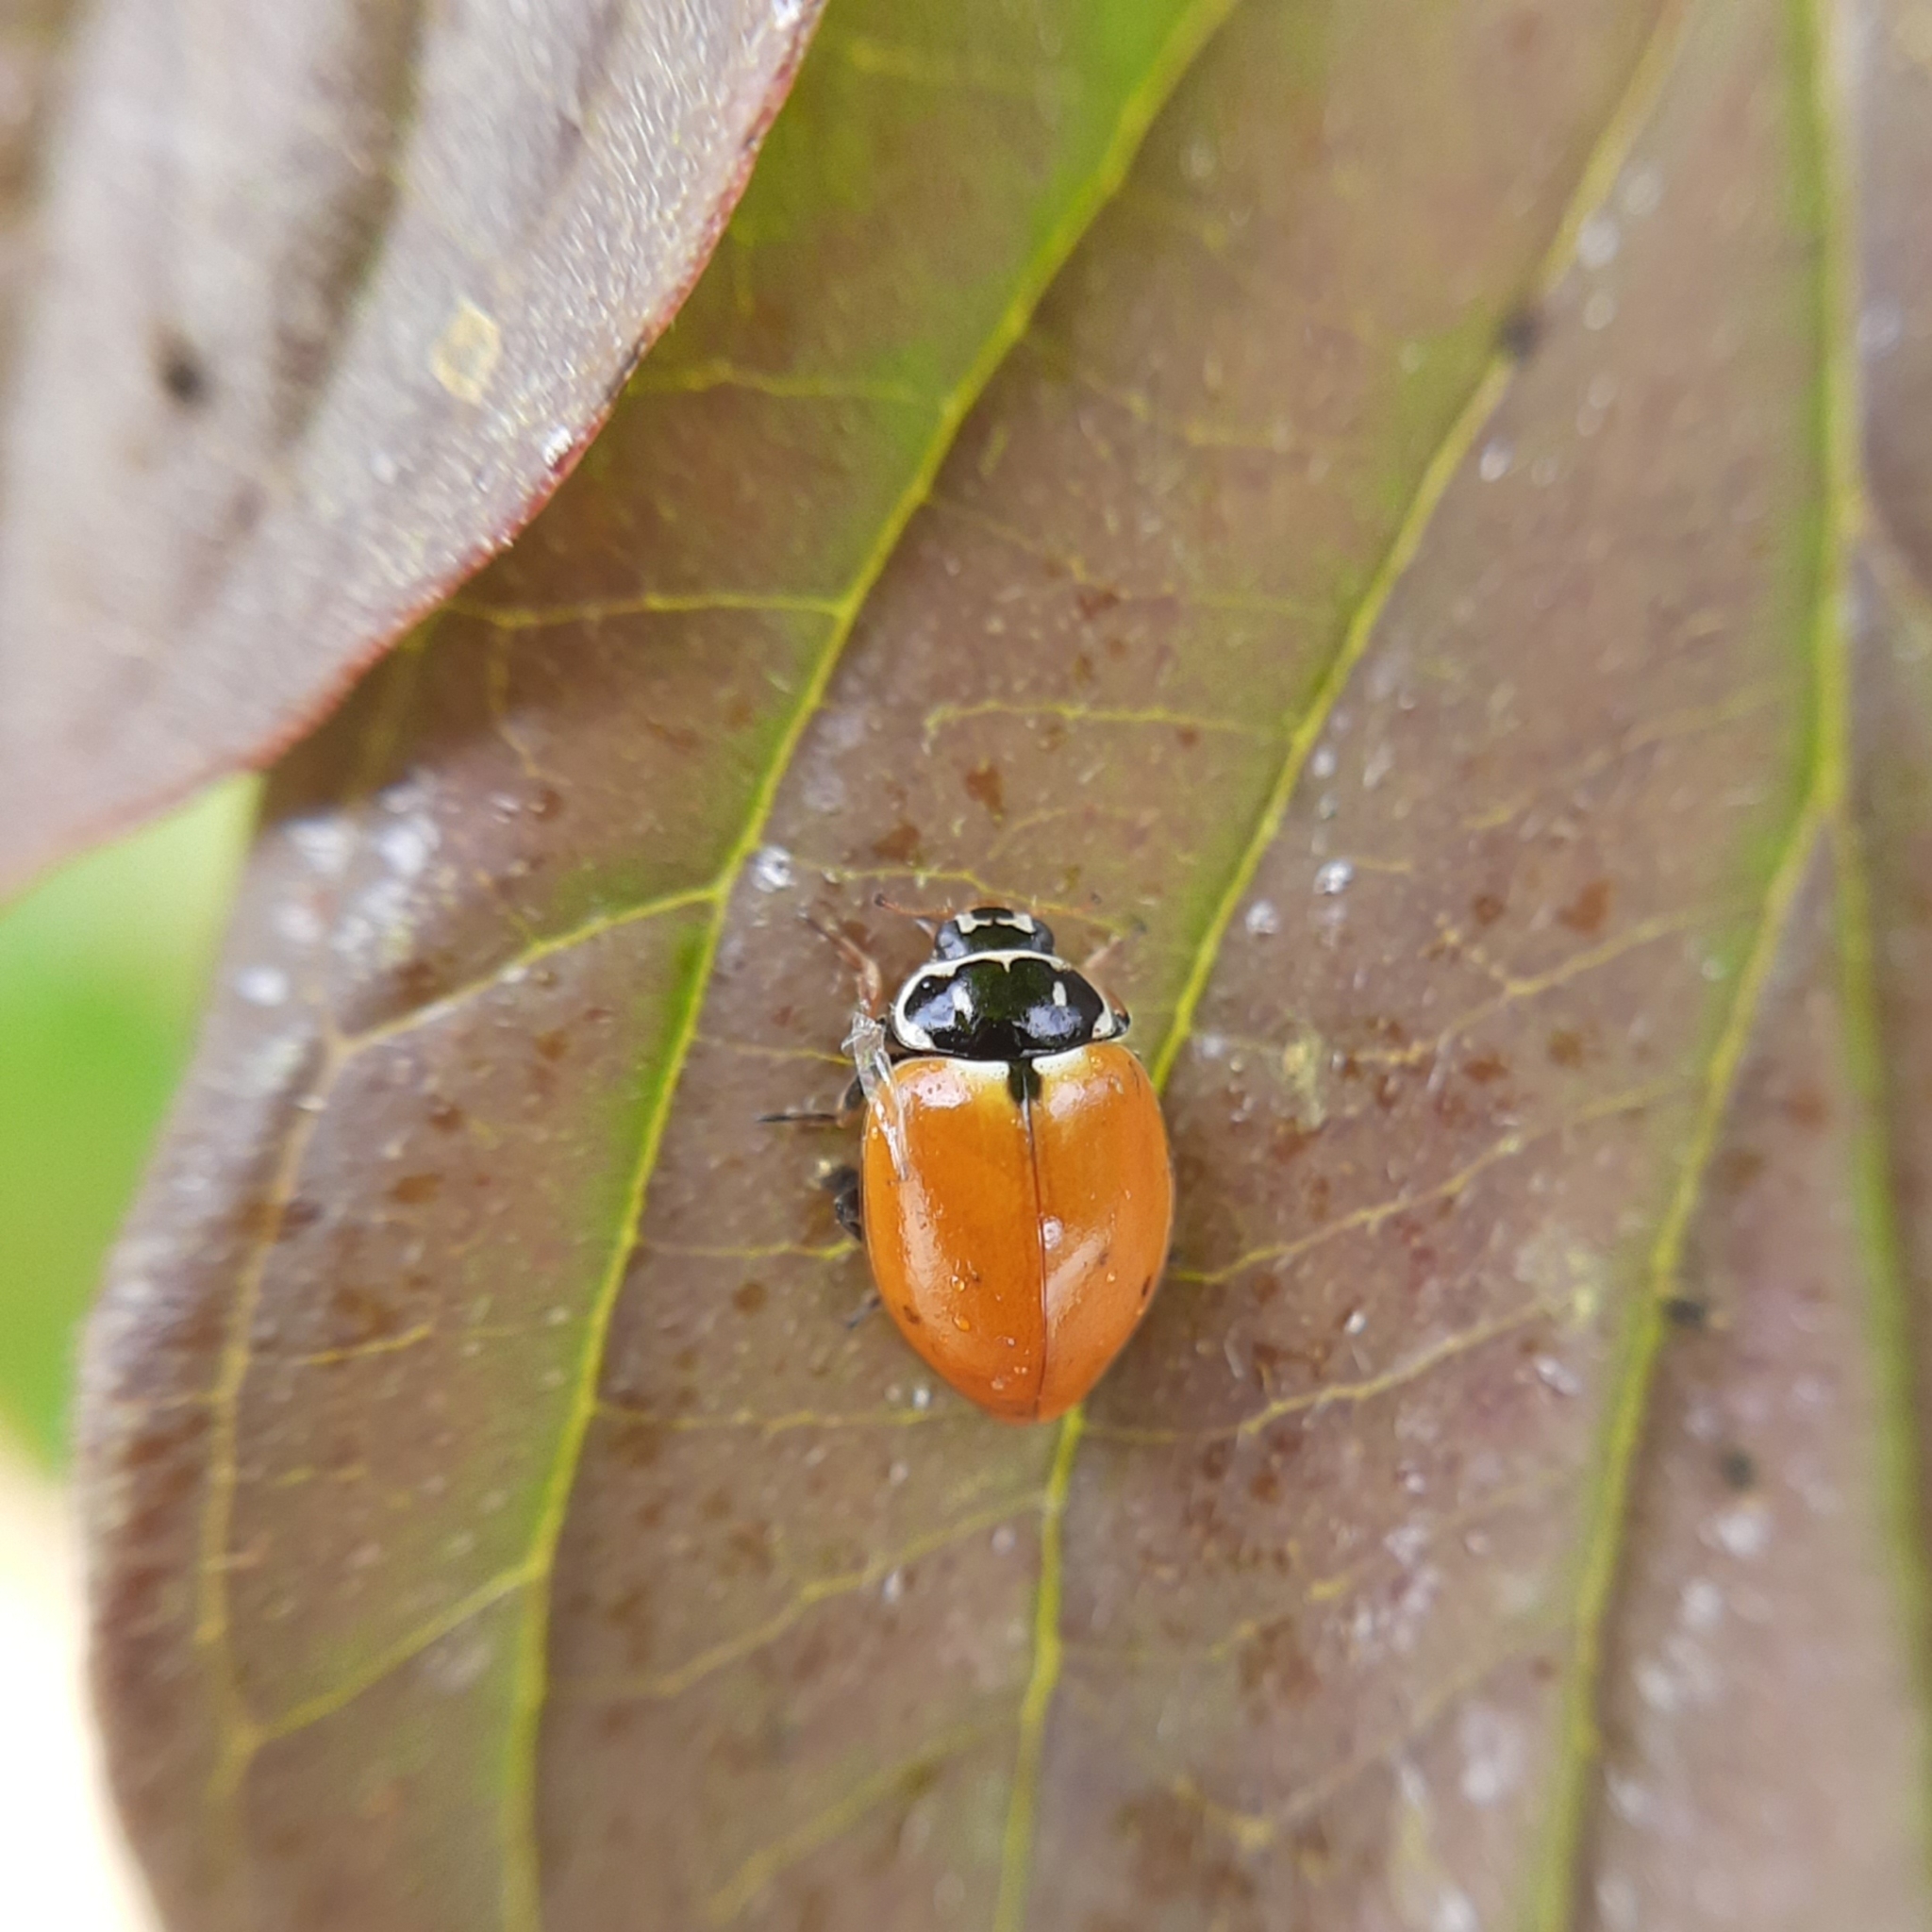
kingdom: Animalia
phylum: Arthropoda
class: Insecta
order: Coleoptera
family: Coccinellidae
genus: Hippodamia
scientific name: Hippodamia variegata
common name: Ladybird beetle
